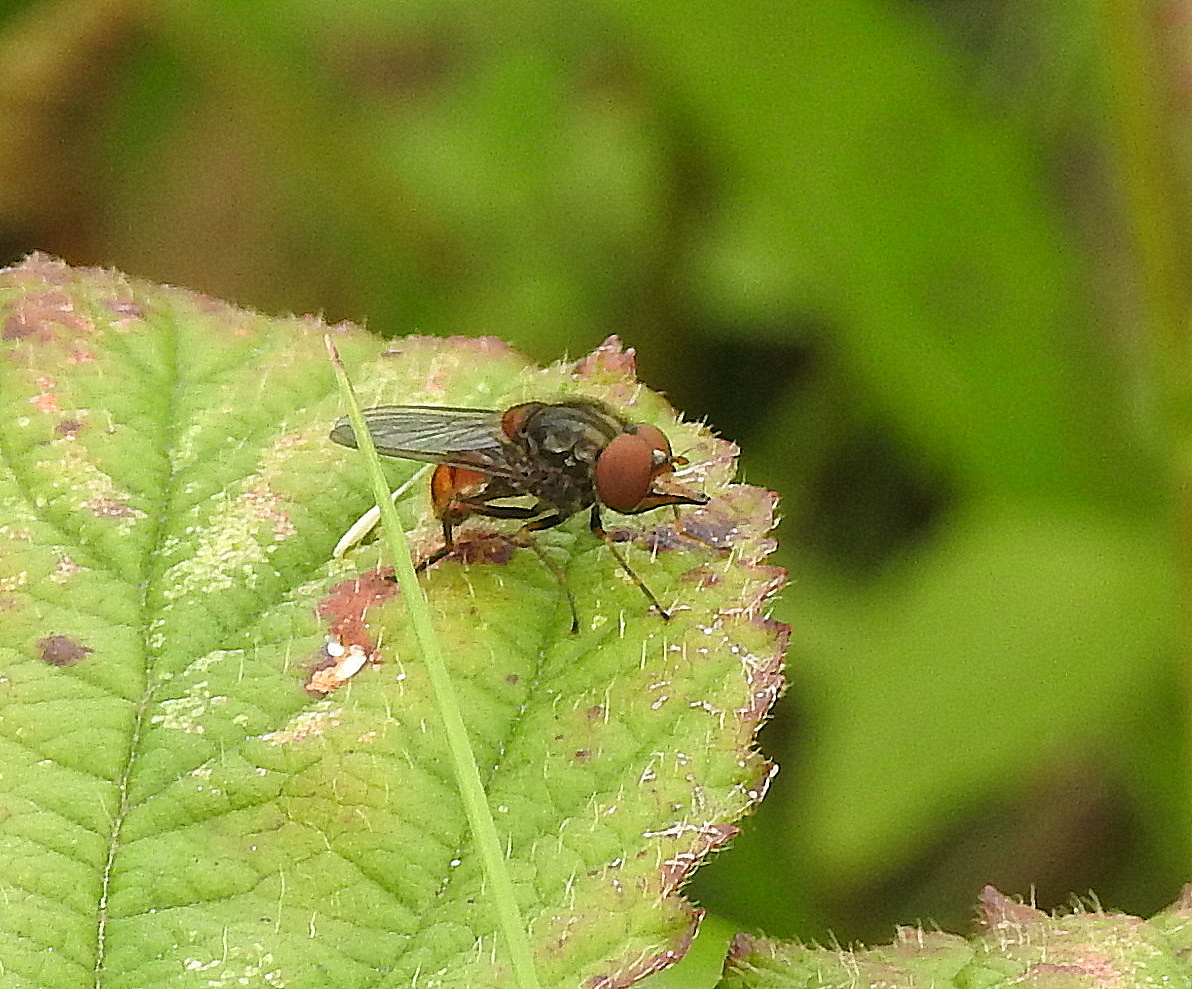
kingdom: Animalia
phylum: Arthropoda
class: Insecta
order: Diptera
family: Syrphidae
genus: Rhingia
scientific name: Rhingia campestris
